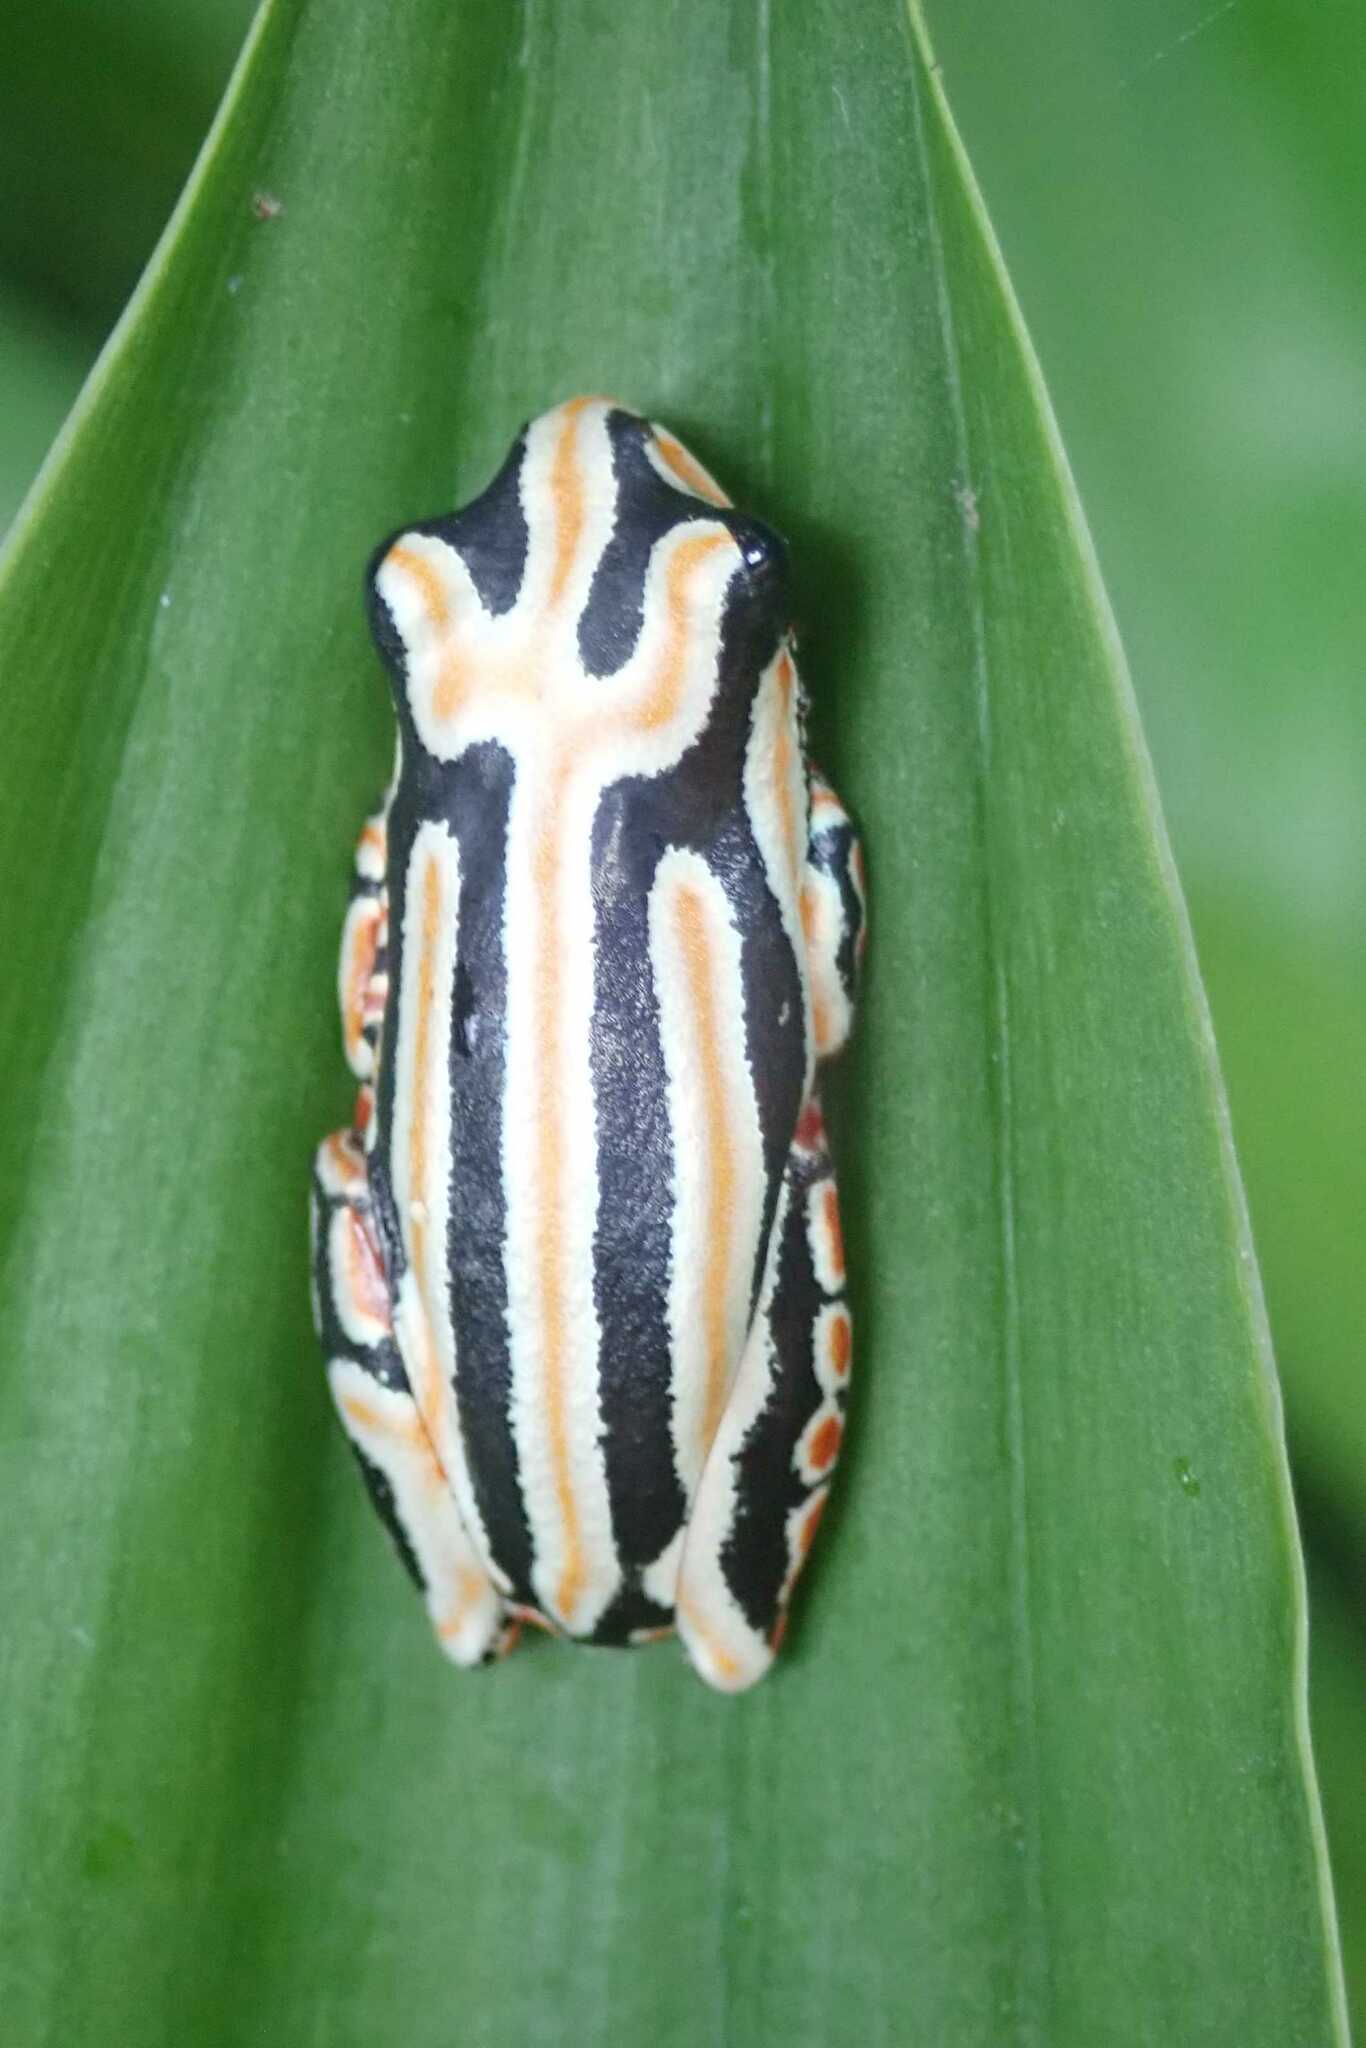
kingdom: Animalia
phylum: Chordata
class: Amphibia
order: Anura
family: Hyperoliidae
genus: Hyperolius
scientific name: Hyperolius marmoratus
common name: Painted reed frog
